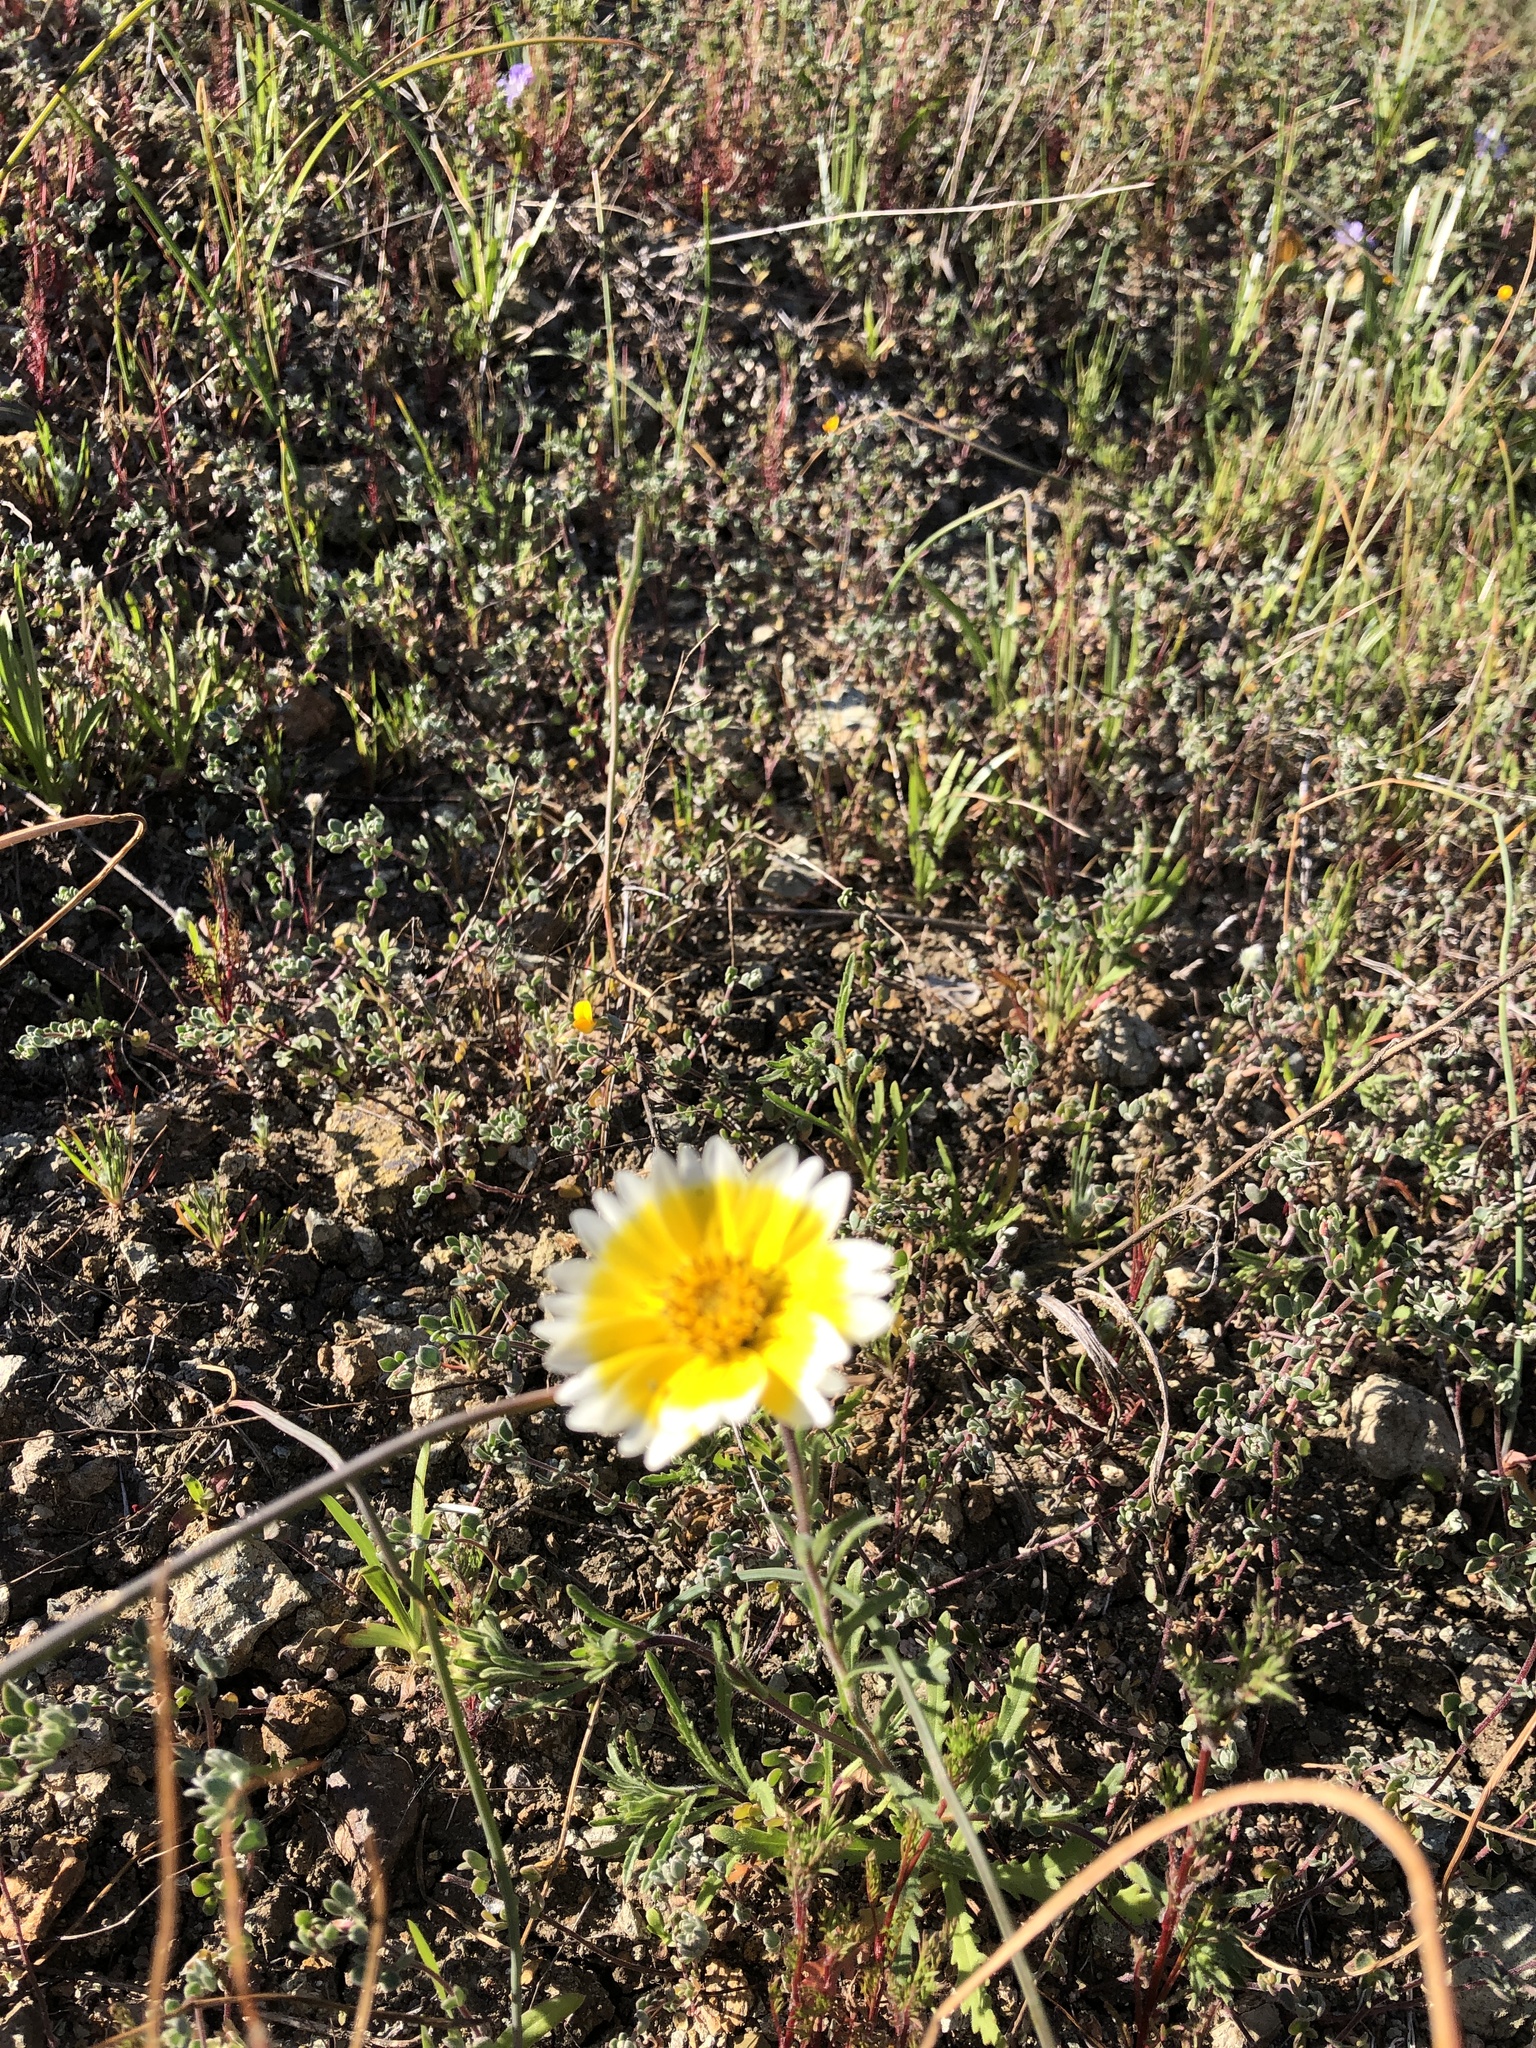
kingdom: Plantae
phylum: Tracheophyta
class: Magnoliopsida
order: Asterales
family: Asteraceae
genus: Layia
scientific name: Layia platyglossa
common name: Tidy-tips
